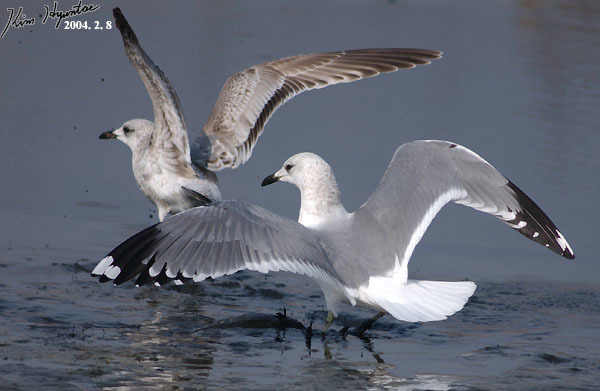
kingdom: Animalia
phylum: Chordata
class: Aves
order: Charadriiformes
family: Laridae
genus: Larus
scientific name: Larus canus
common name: Mew gull
